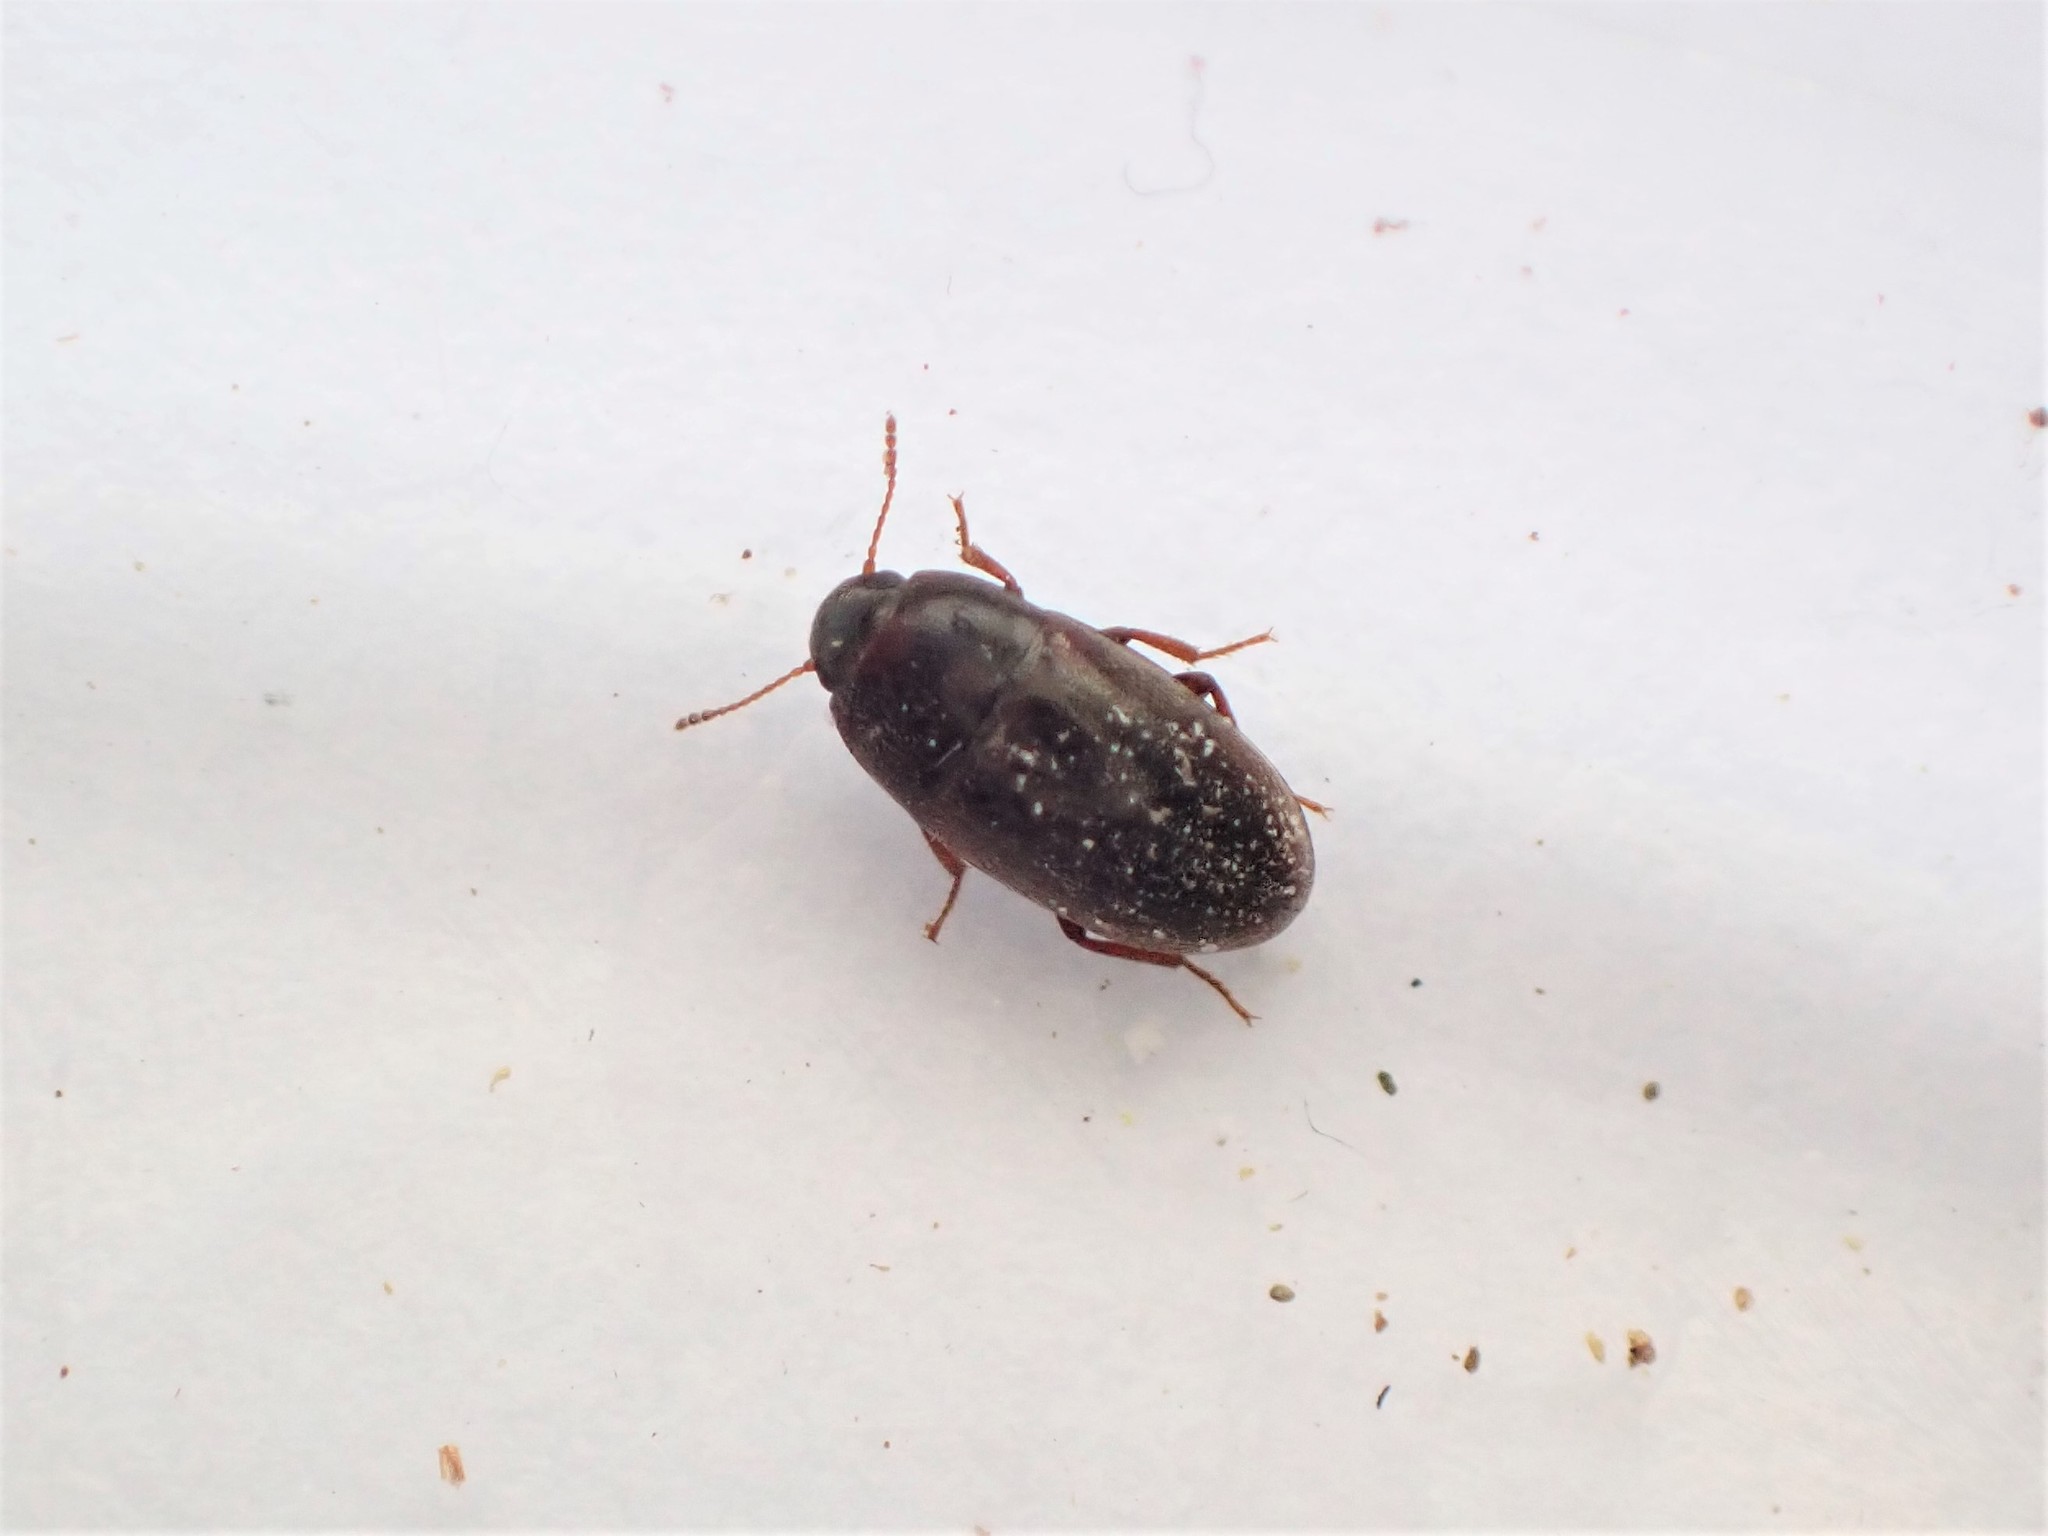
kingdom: Animalia
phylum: Arthropoda
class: Insecta
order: Coleoptera
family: Archeocrypticidae
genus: Enneboeus
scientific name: Enneboeus
